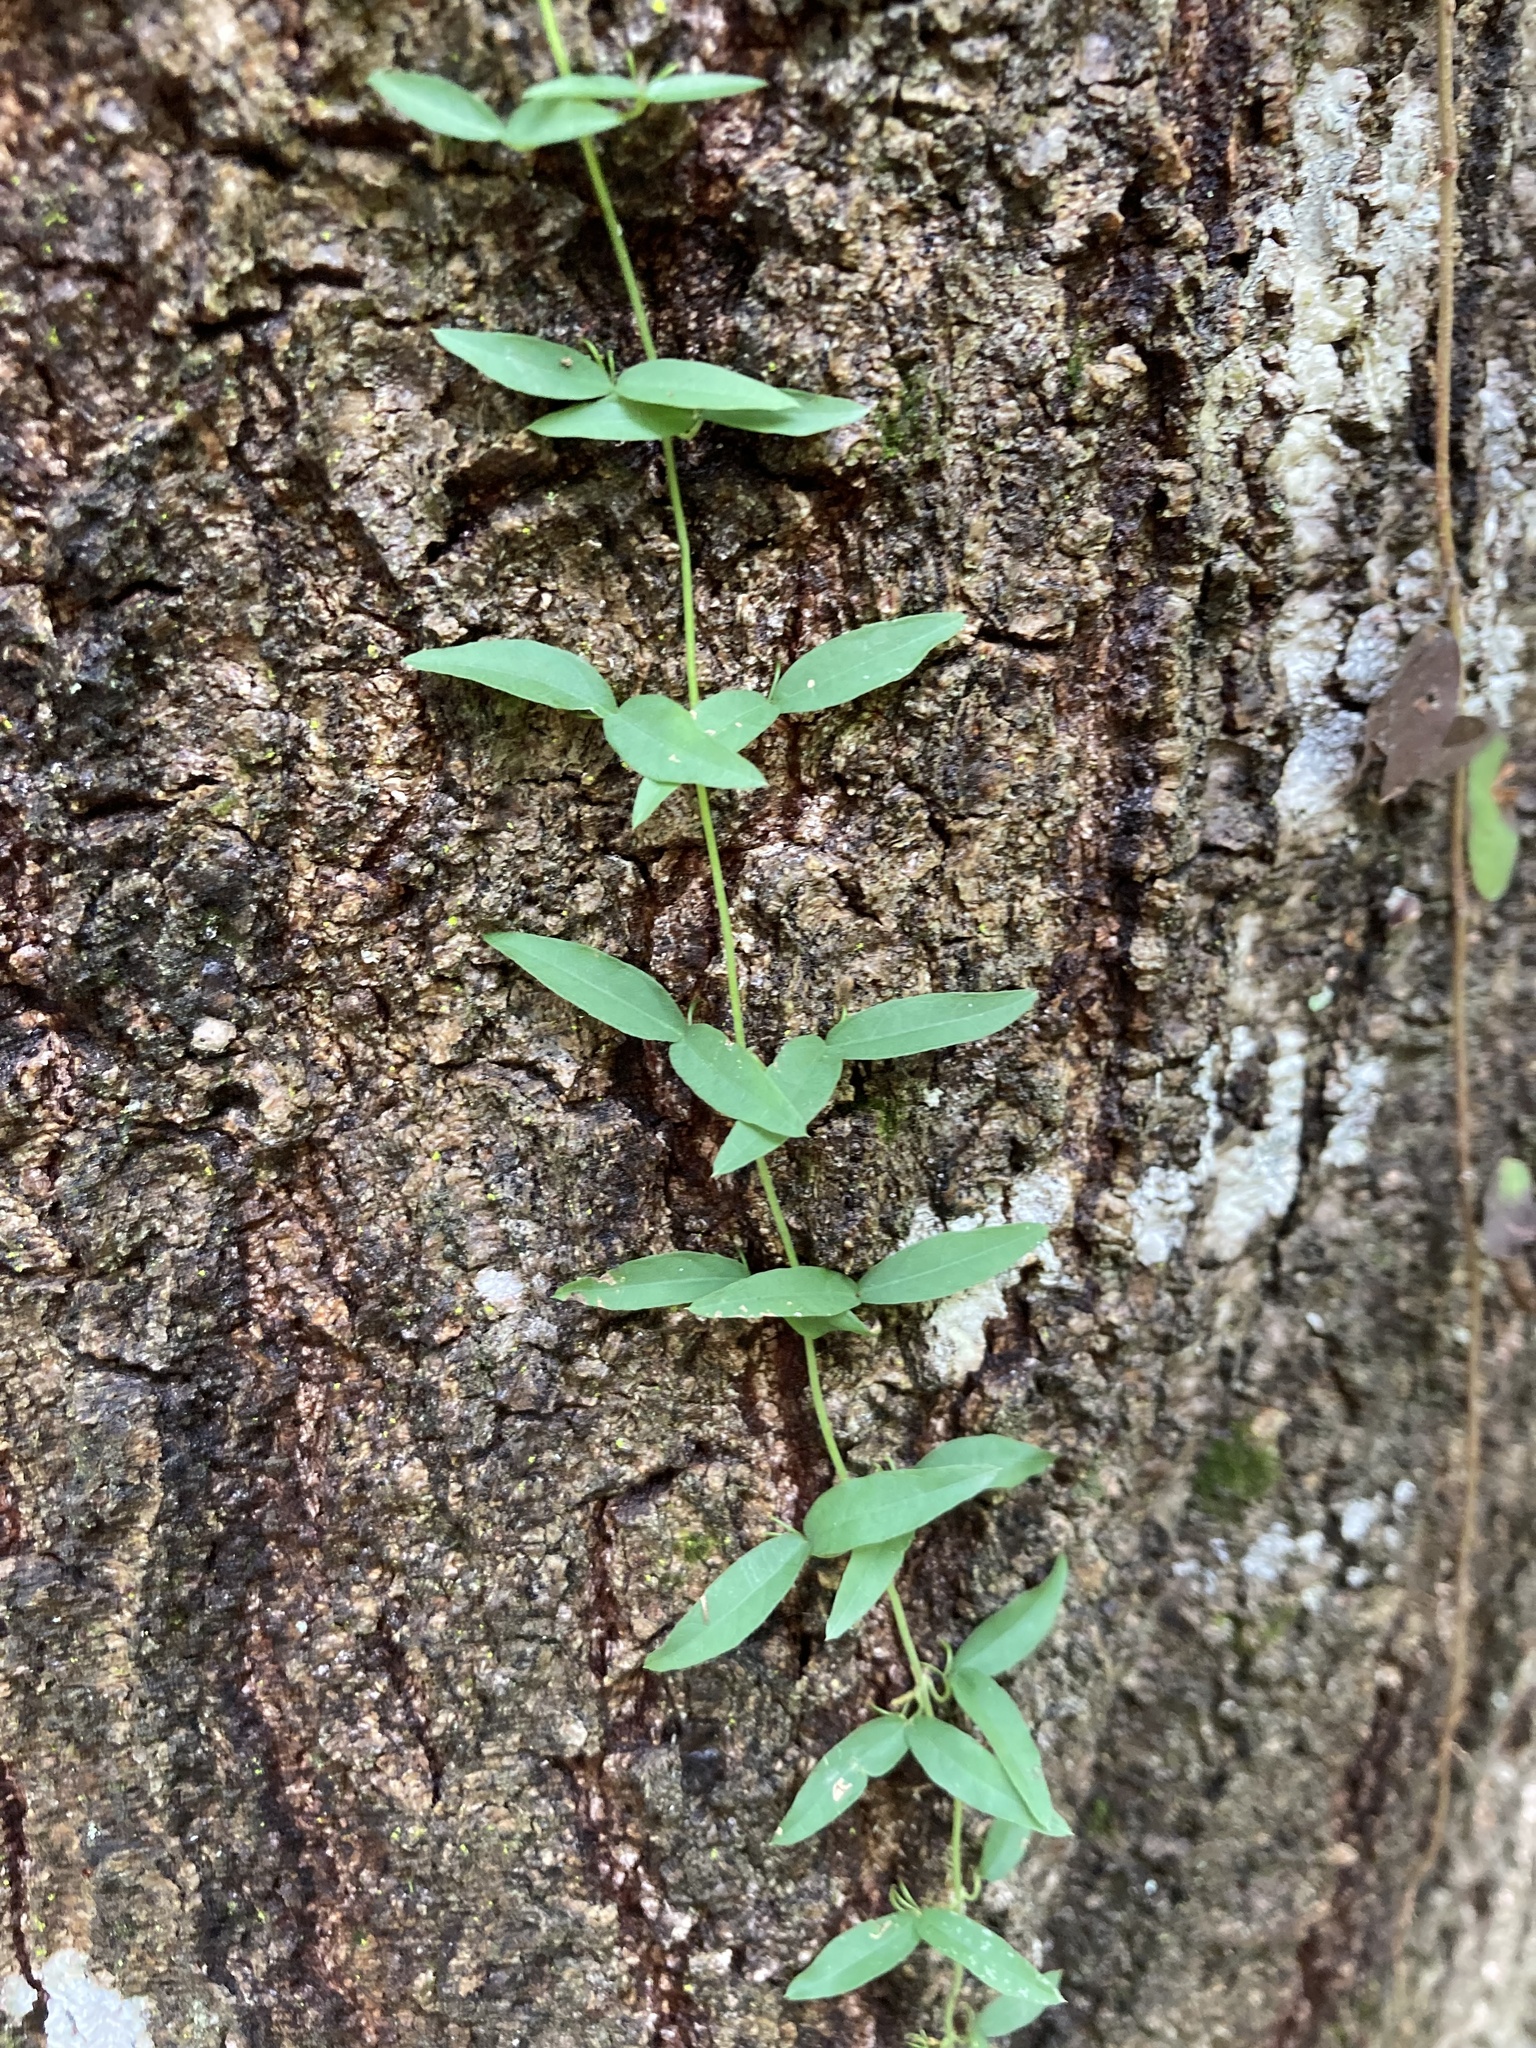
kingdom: Plantae
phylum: Tracheophyta
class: Magnoliopsida
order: Lamiales
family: Bignoniaceae
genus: Dolichandra
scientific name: Dolichandra unguis-cati
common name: Catclaw vine
